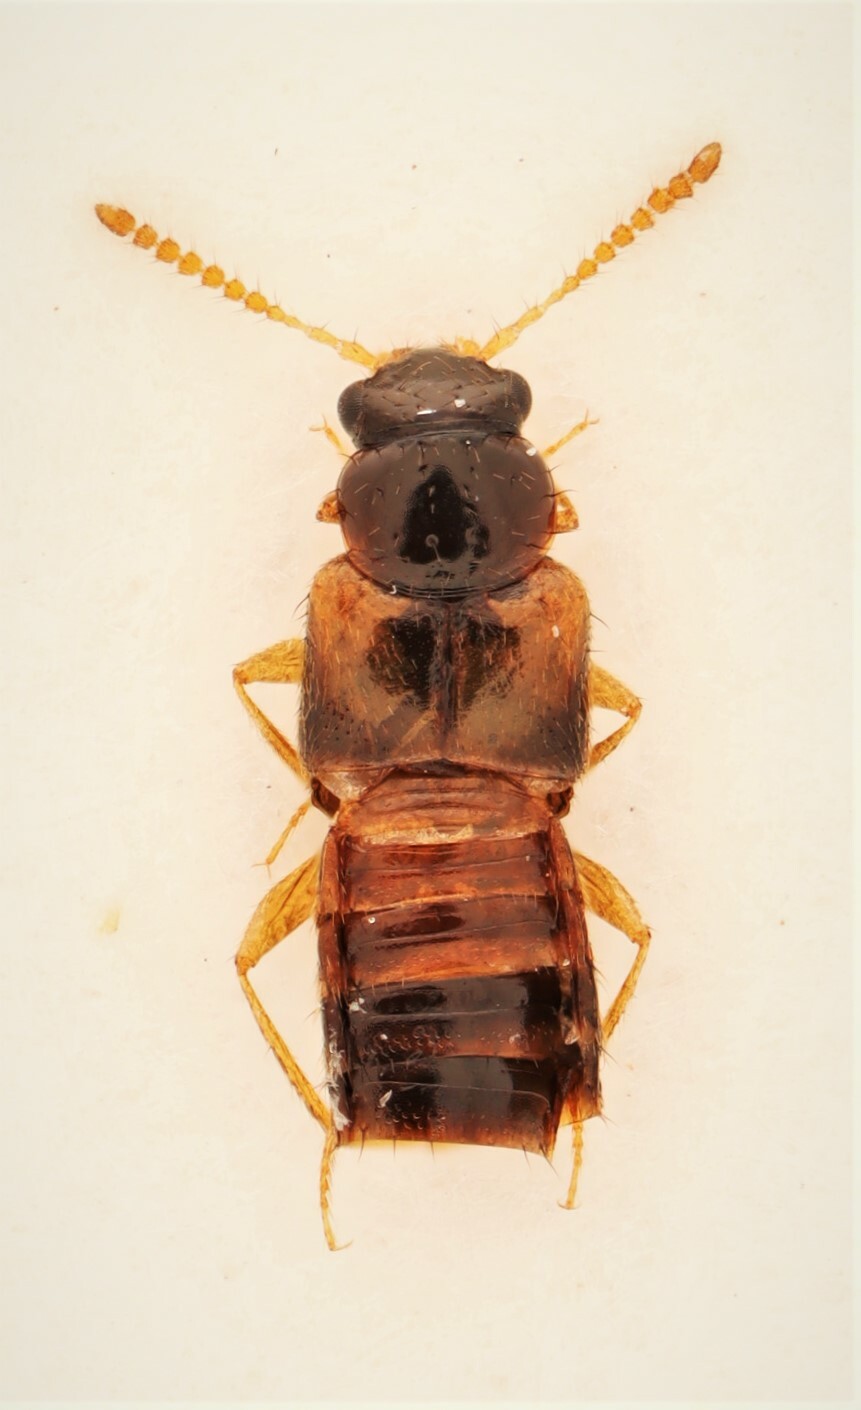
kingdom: Animalia
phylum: Arthropoda
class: Insecta
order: Coleoptera
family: Staphylinidae
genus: Gyrophaena
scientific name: Gyrophaena flavicornis
